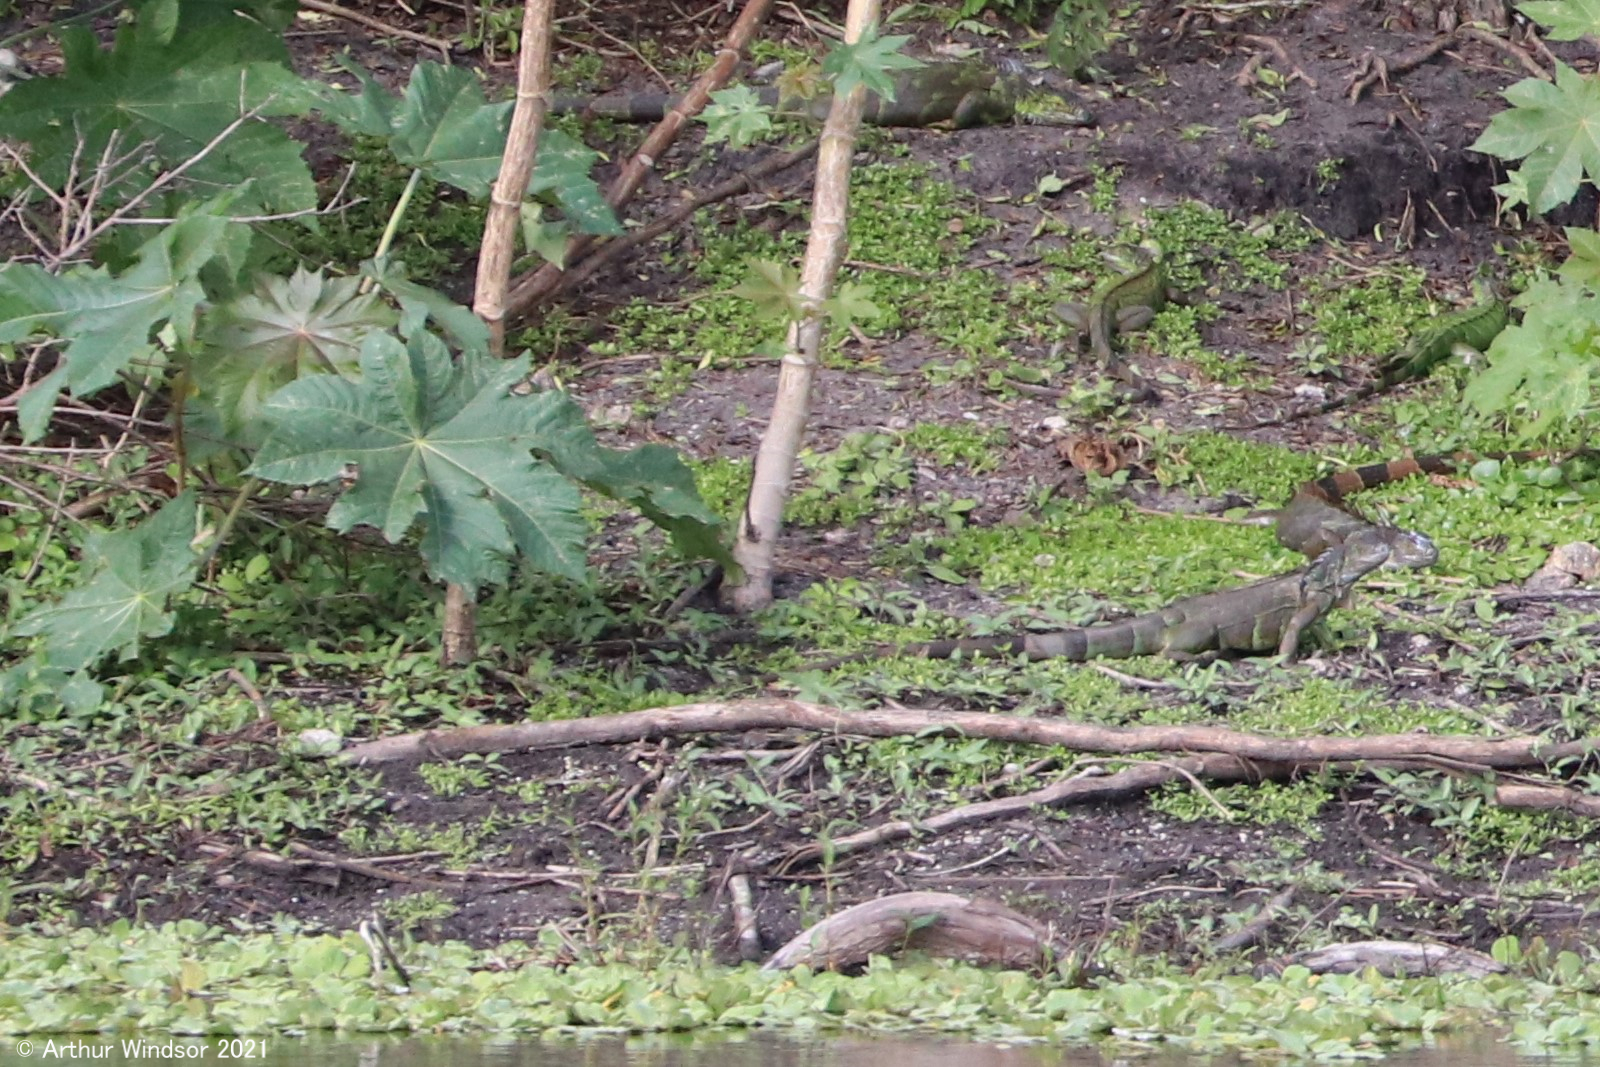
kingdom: Animalia
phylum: Chordata
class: Squamata
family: Iguanidae
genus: Iguana
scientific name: Iguana iguana
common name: Green iguana
